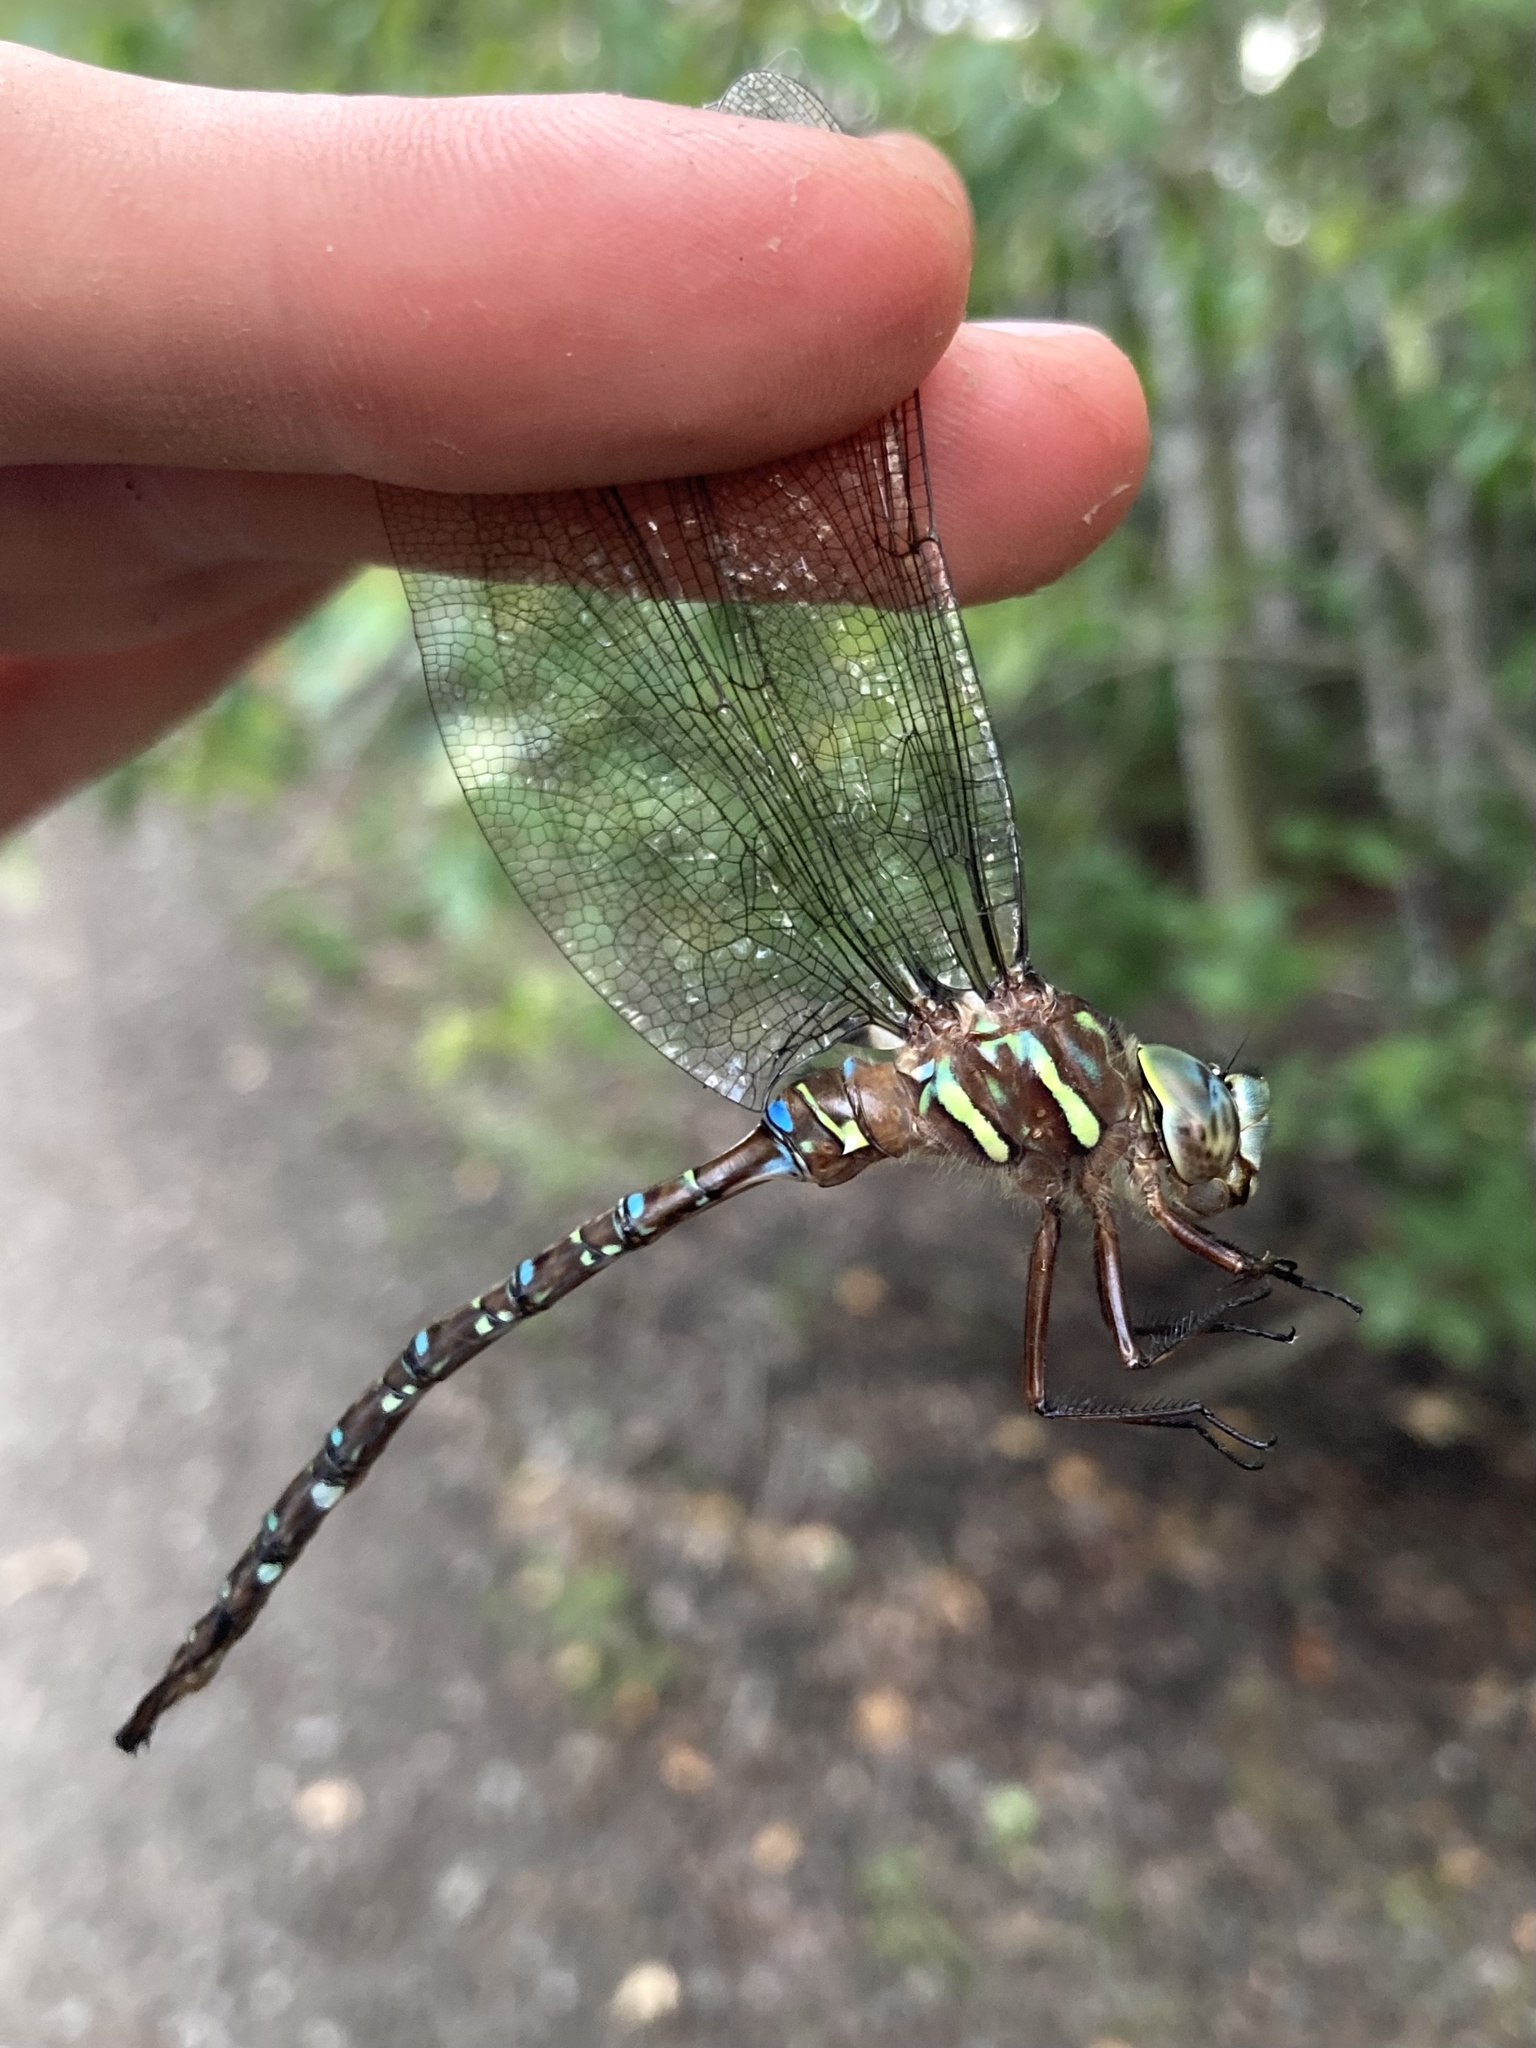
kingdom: Animalia
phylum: Arthropoda
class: Insecta
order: Odonata
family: Aeshnidae
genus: Aeshna
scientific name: Aeshna umbrosa
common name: Shadow darner
